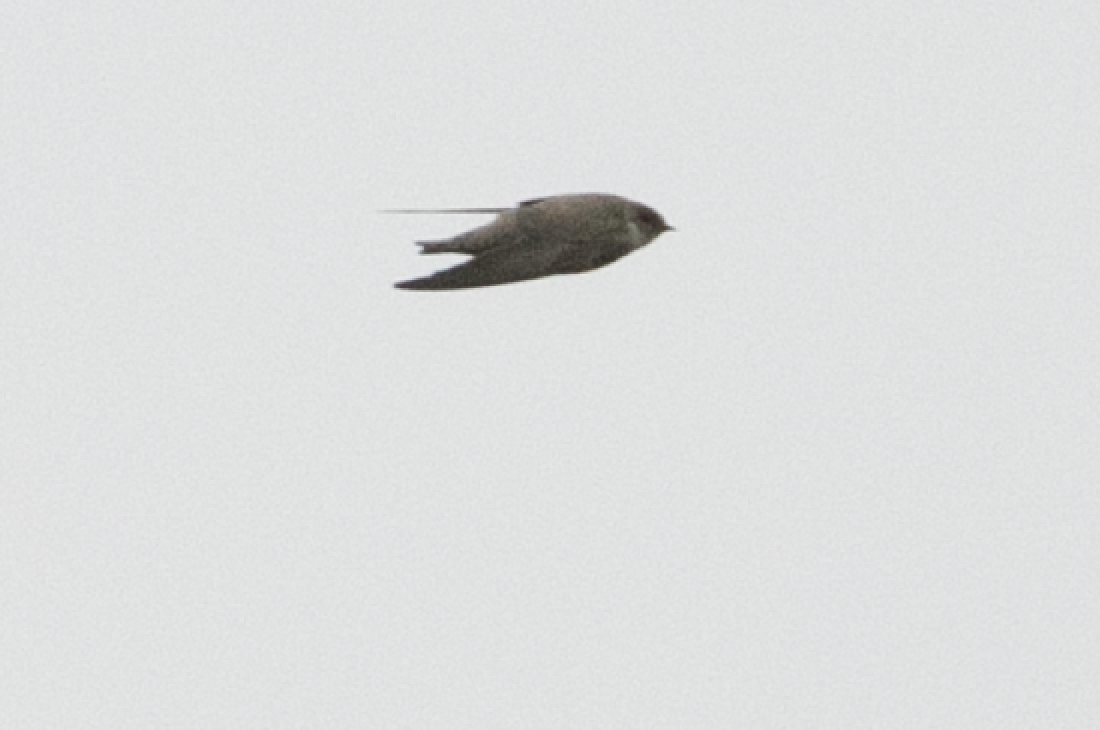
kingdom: Animalia
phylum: Chordata
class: Aves
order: Passeriformes
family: Hirundinidae
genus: Ptyonoprogne
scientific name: Ptyonoprogne rupestris
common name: Eurasian crag martin
